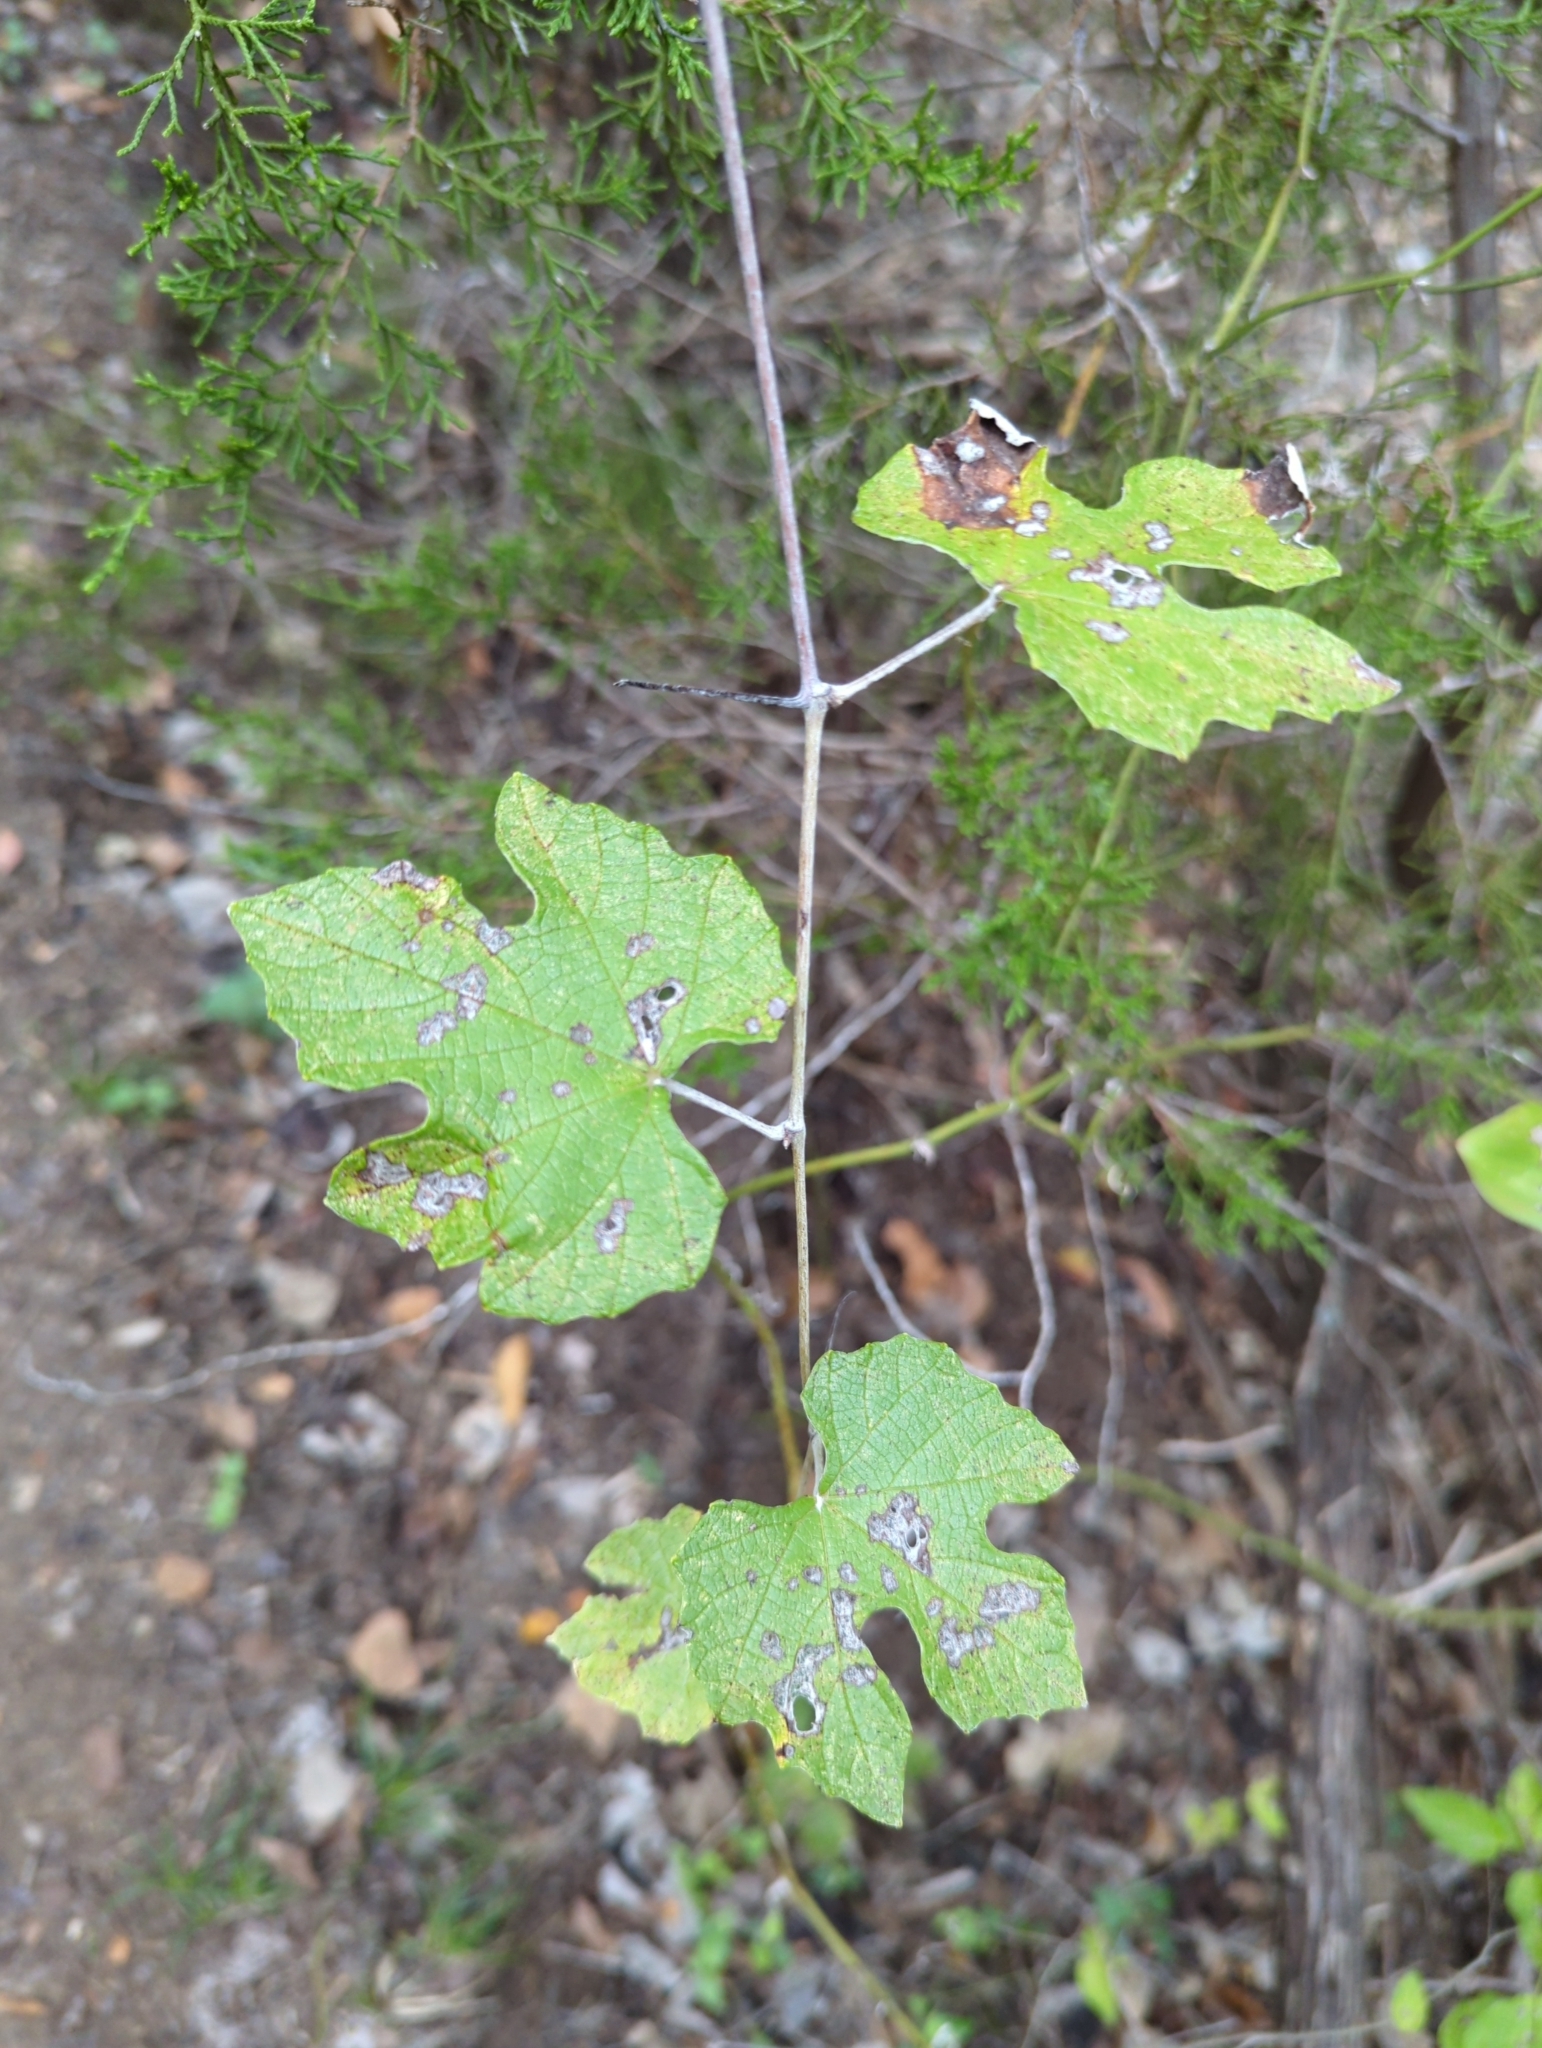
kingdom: Plantae
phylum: Tracheophyta
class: Magnoliopsida
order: Vitales
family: Vitaceae
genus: Vitis
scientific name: Vitis mustangensis
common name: Mustang grape
